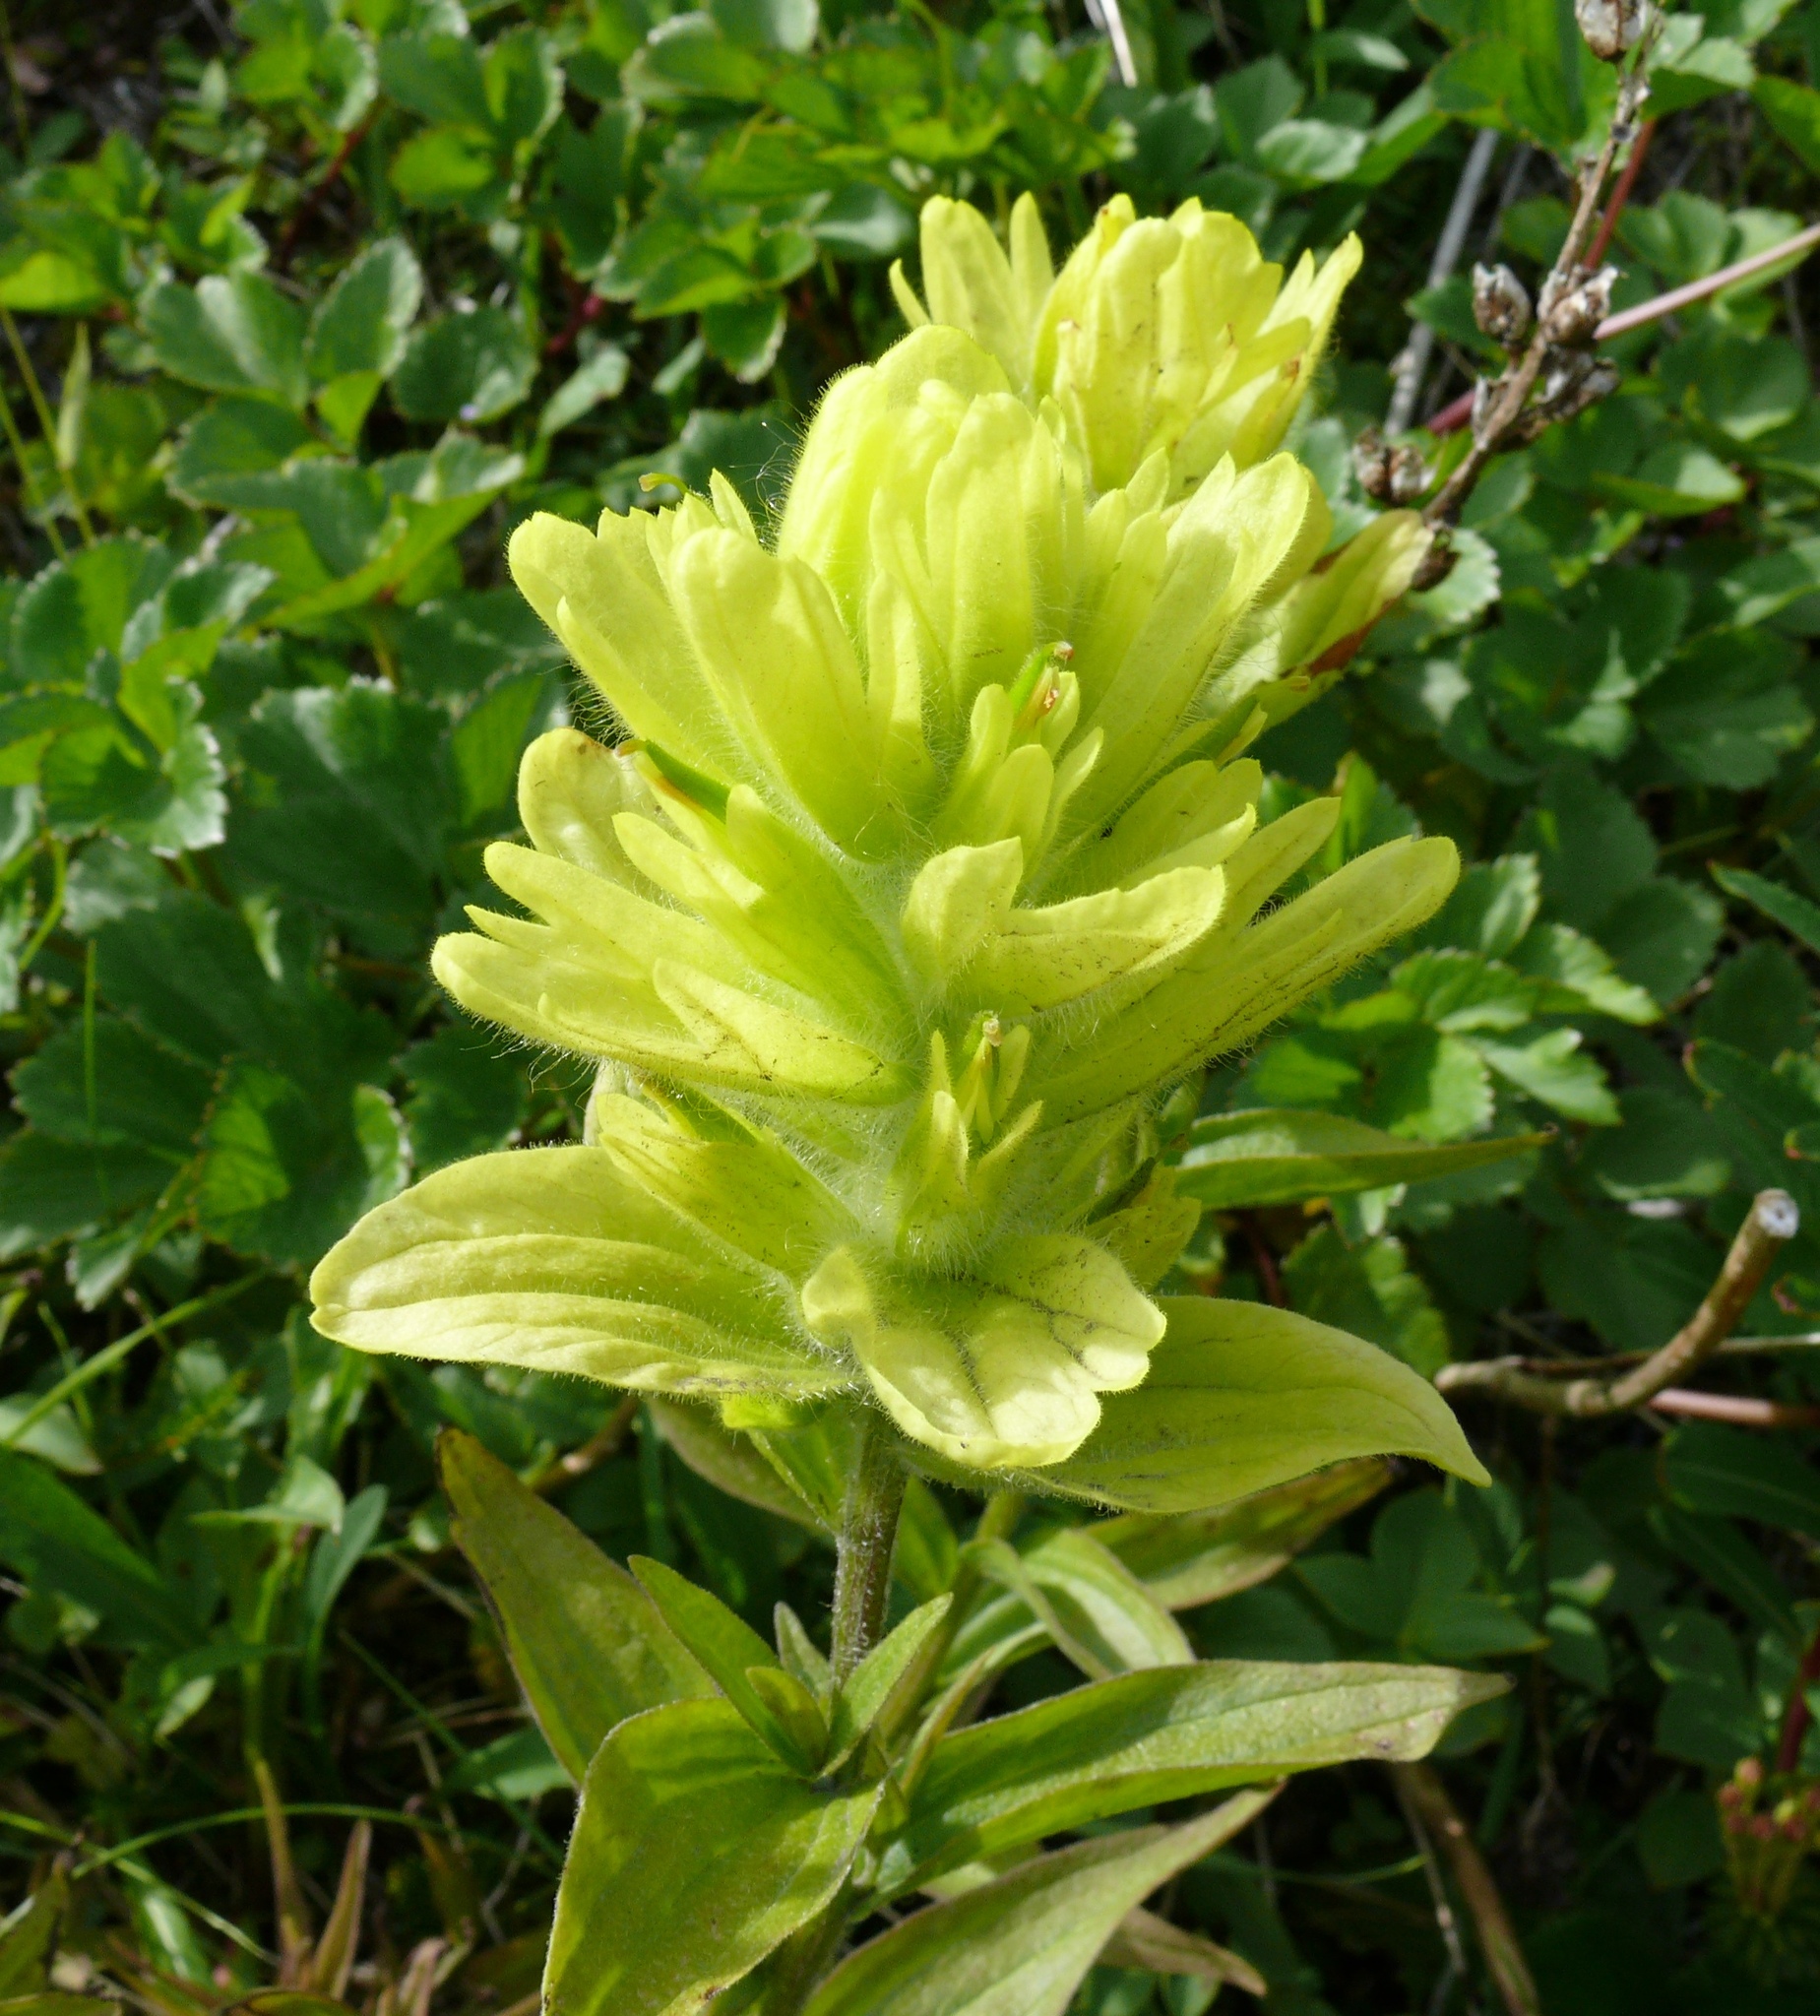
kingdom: Plantae
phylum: Tracheophyta
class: Magnoliopsida
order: Lamiales
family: Orobanchaceae
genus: Castilleja
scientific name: Castilleja unalaschcensis
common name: Unalaska paintbrush
